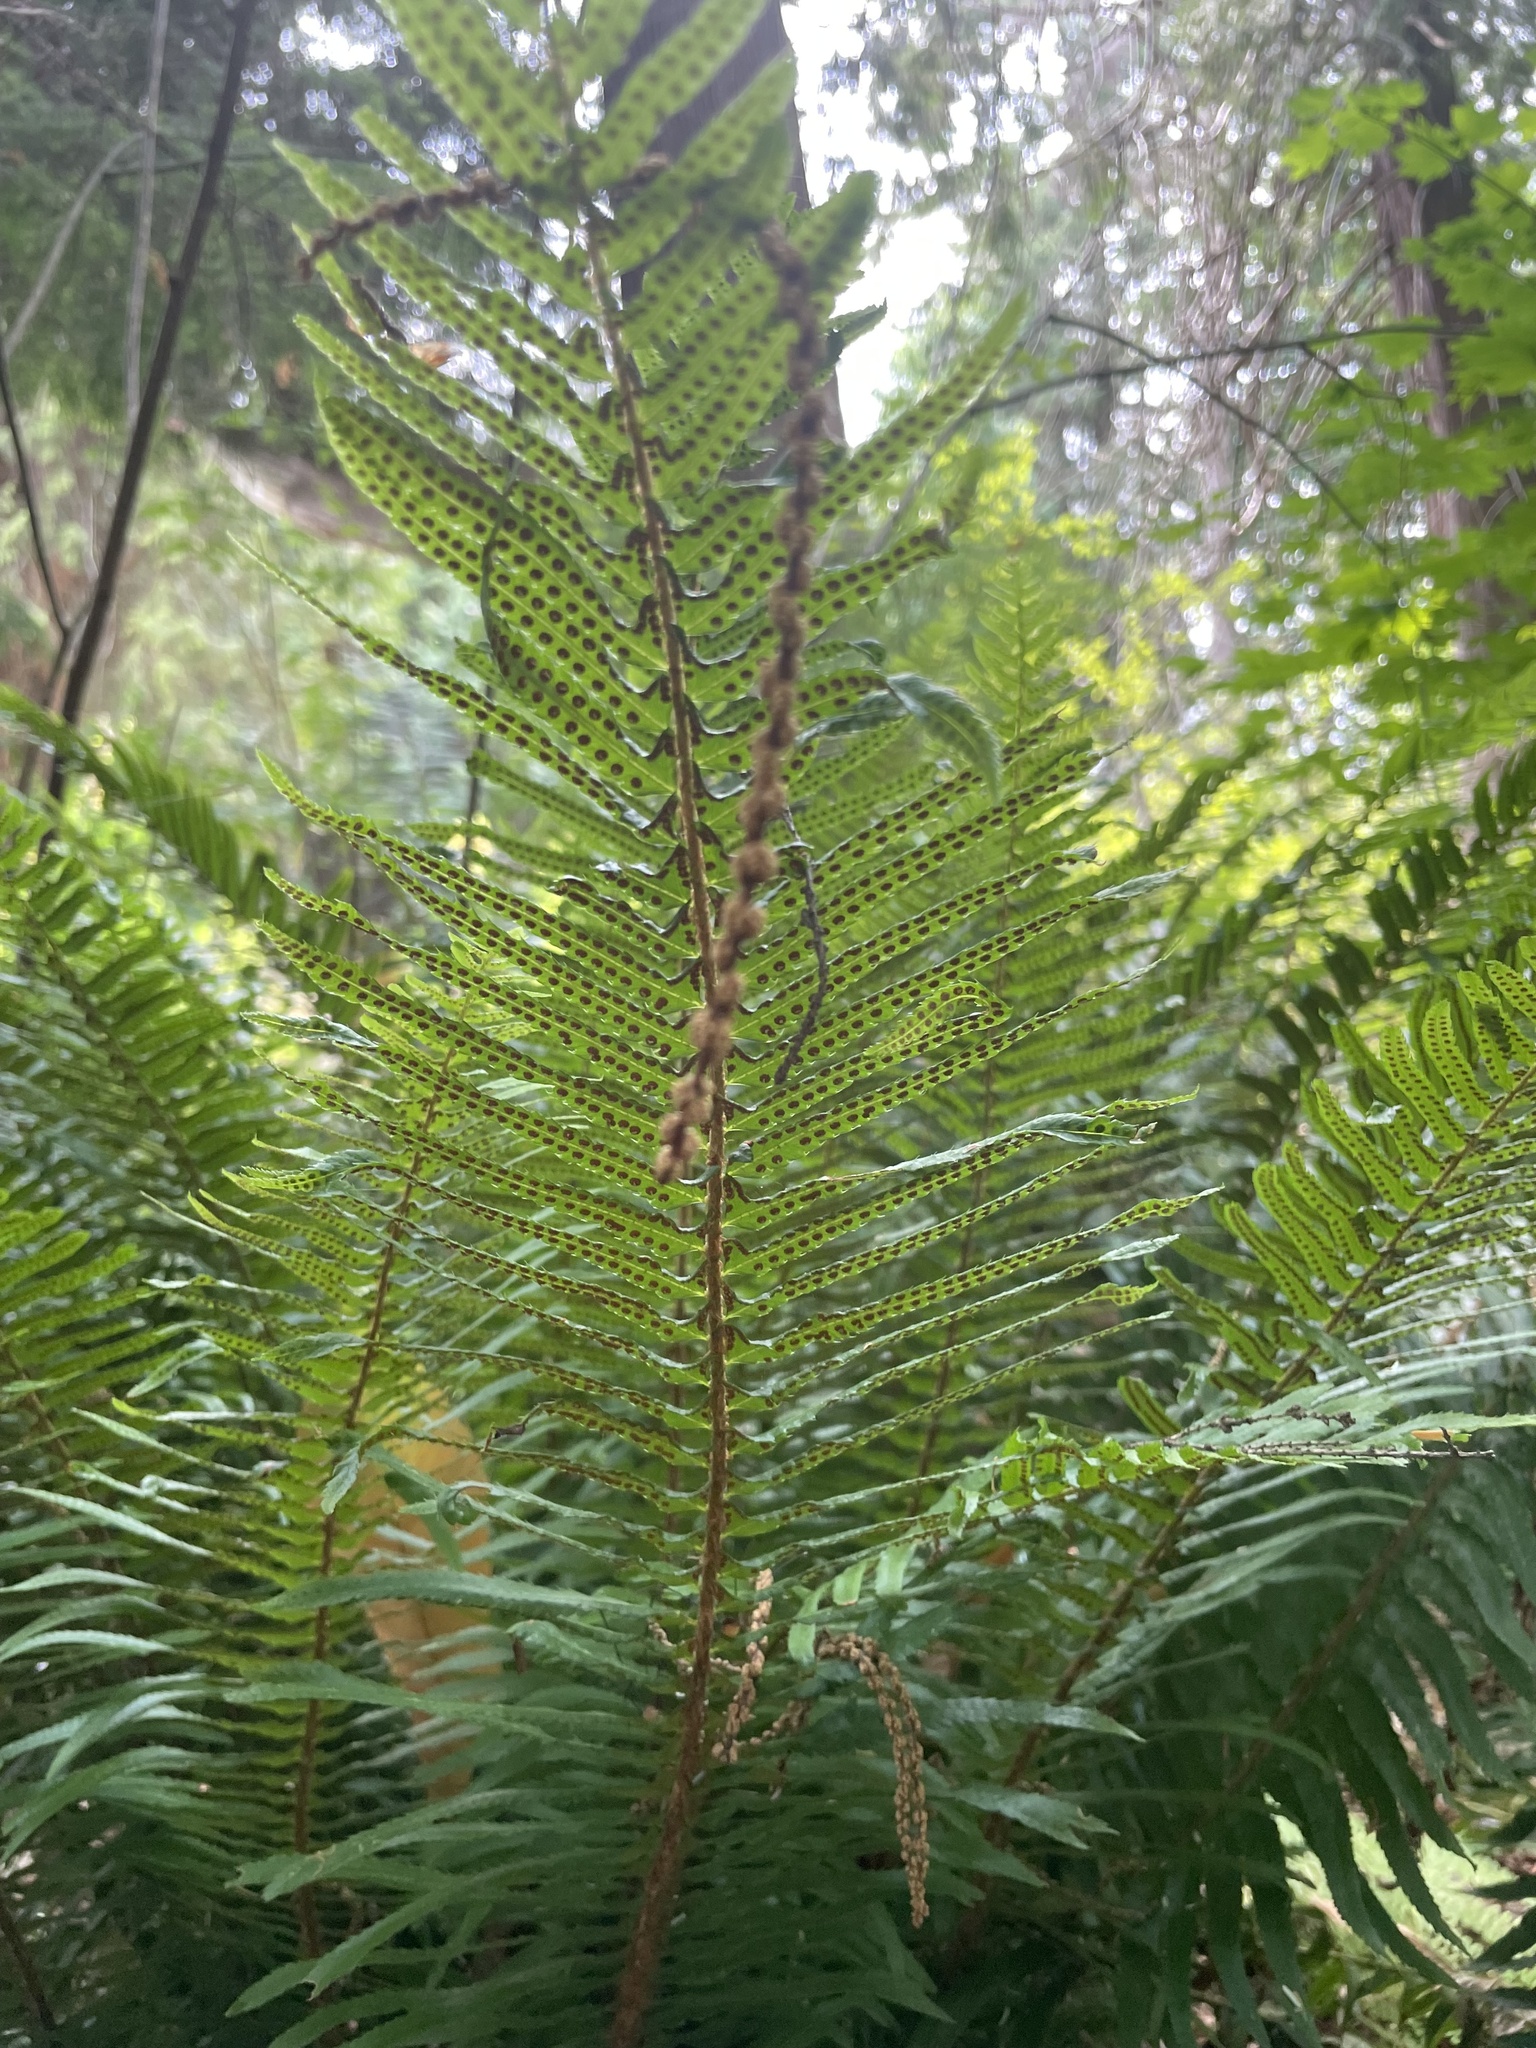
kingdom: Plantae
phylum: Tracheophyta
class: Polypodiopsida
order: Polypodiales
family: Dryopteridaceae
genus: Polystichum
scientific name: Polystichum munitum
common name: Western sword-fern
